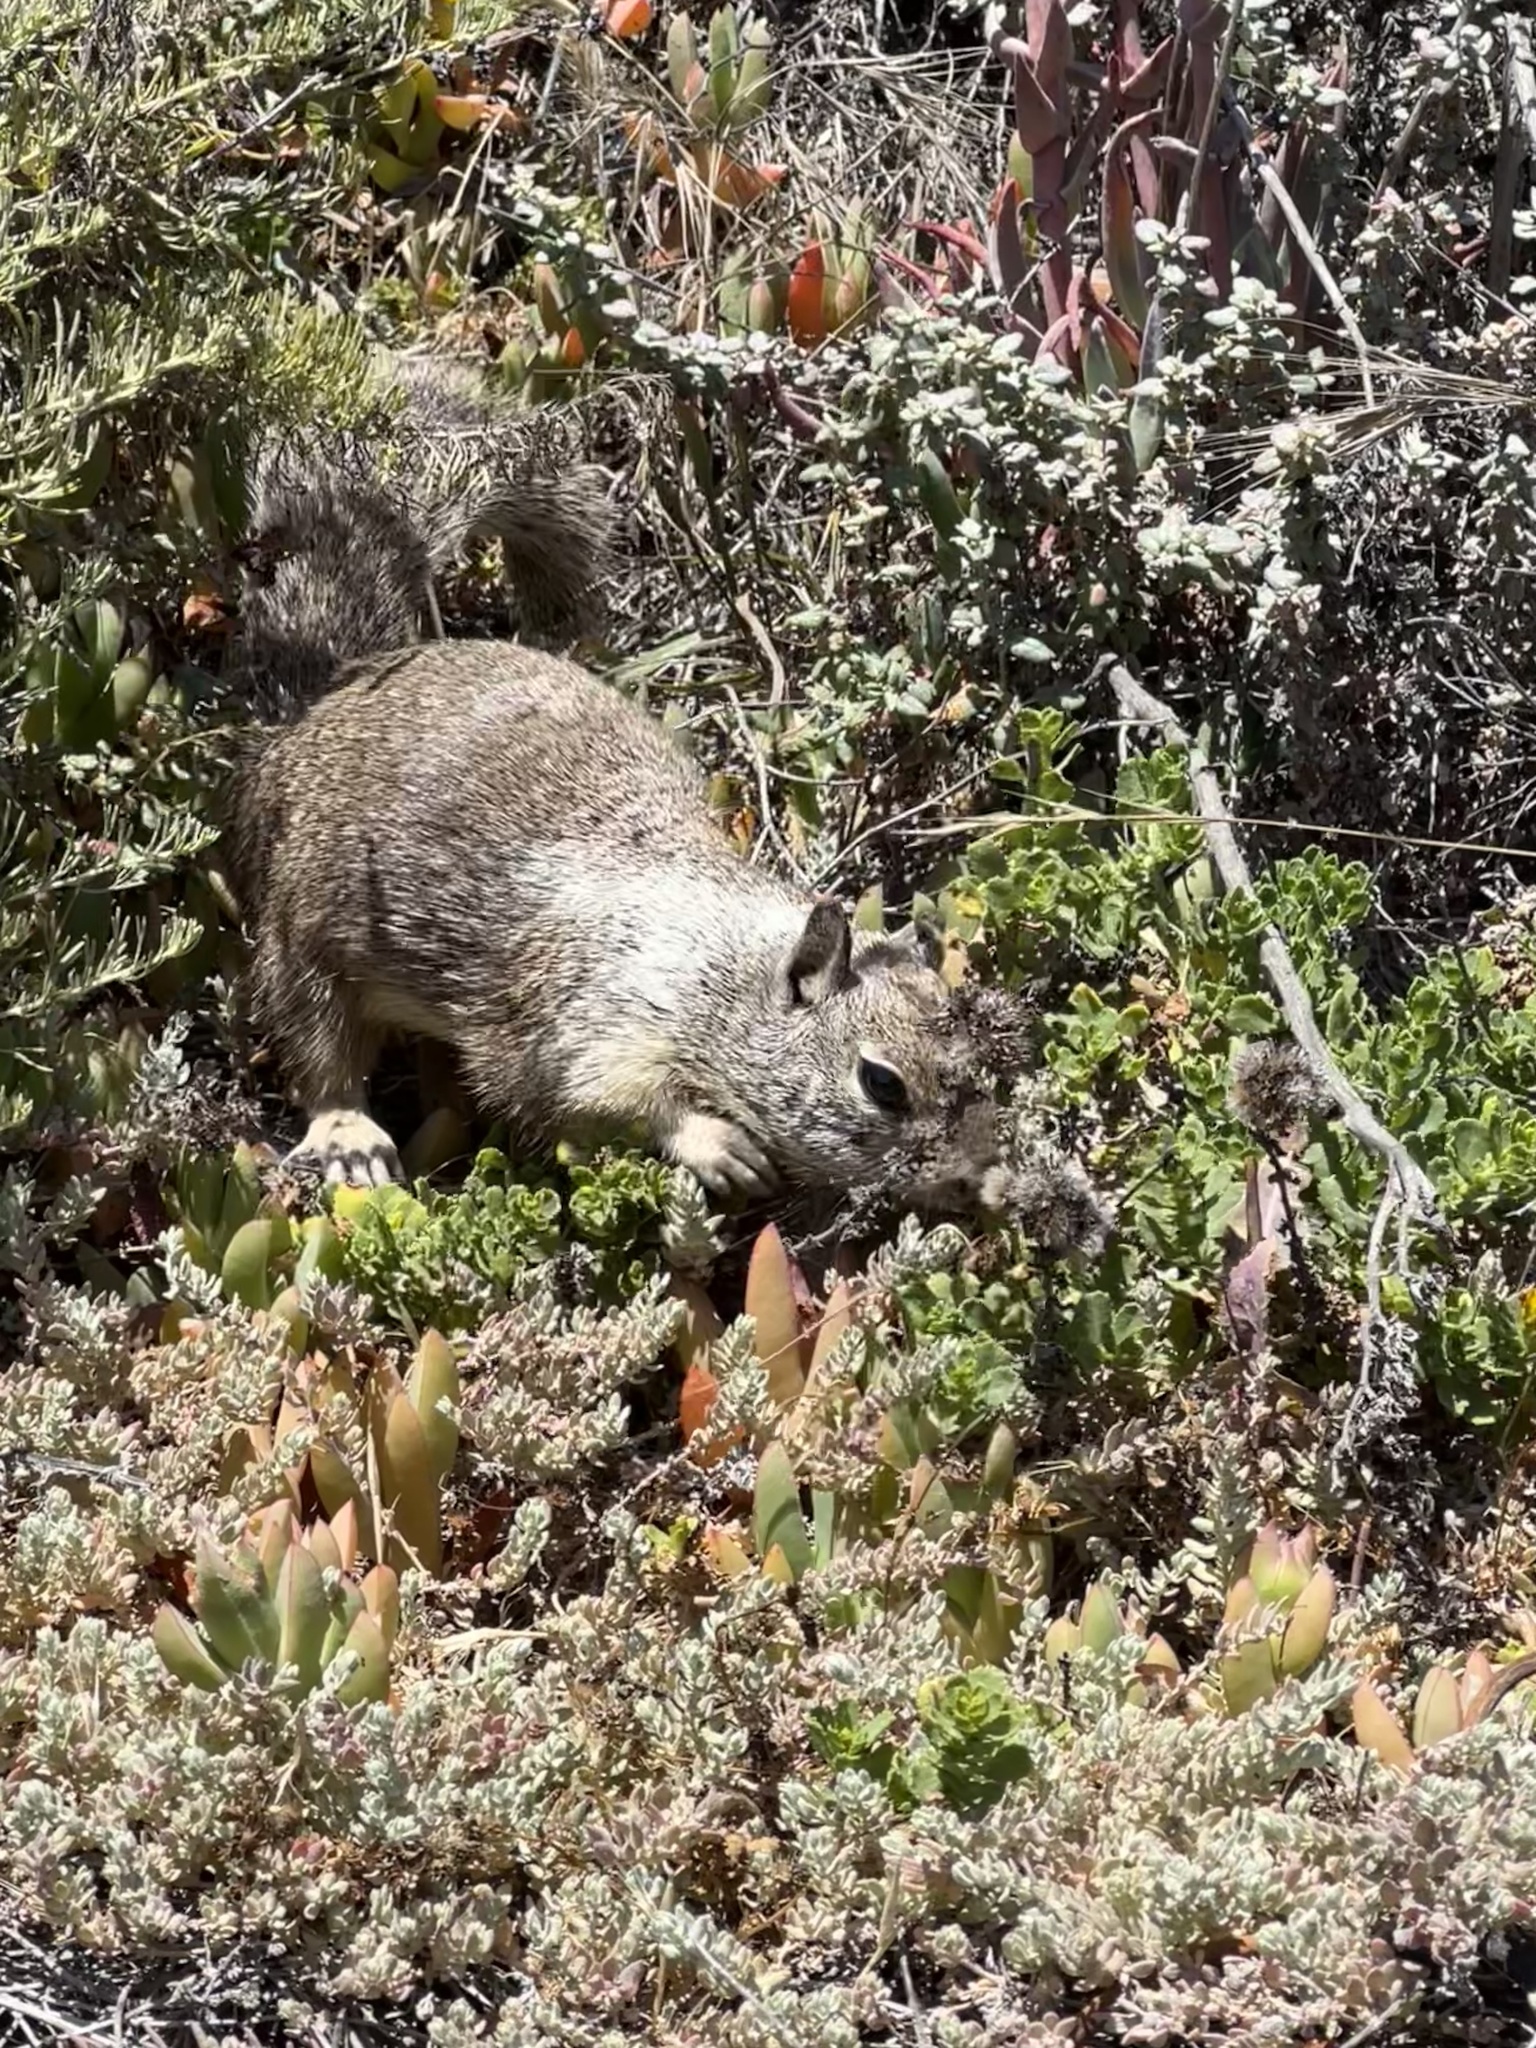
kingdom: Animalia
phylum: Chordata
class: Mammalia
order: Rodentia
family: Sciuridae
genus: Otospermophilus
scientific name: Otospermophilus beecheyi
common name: California ground squirrel
